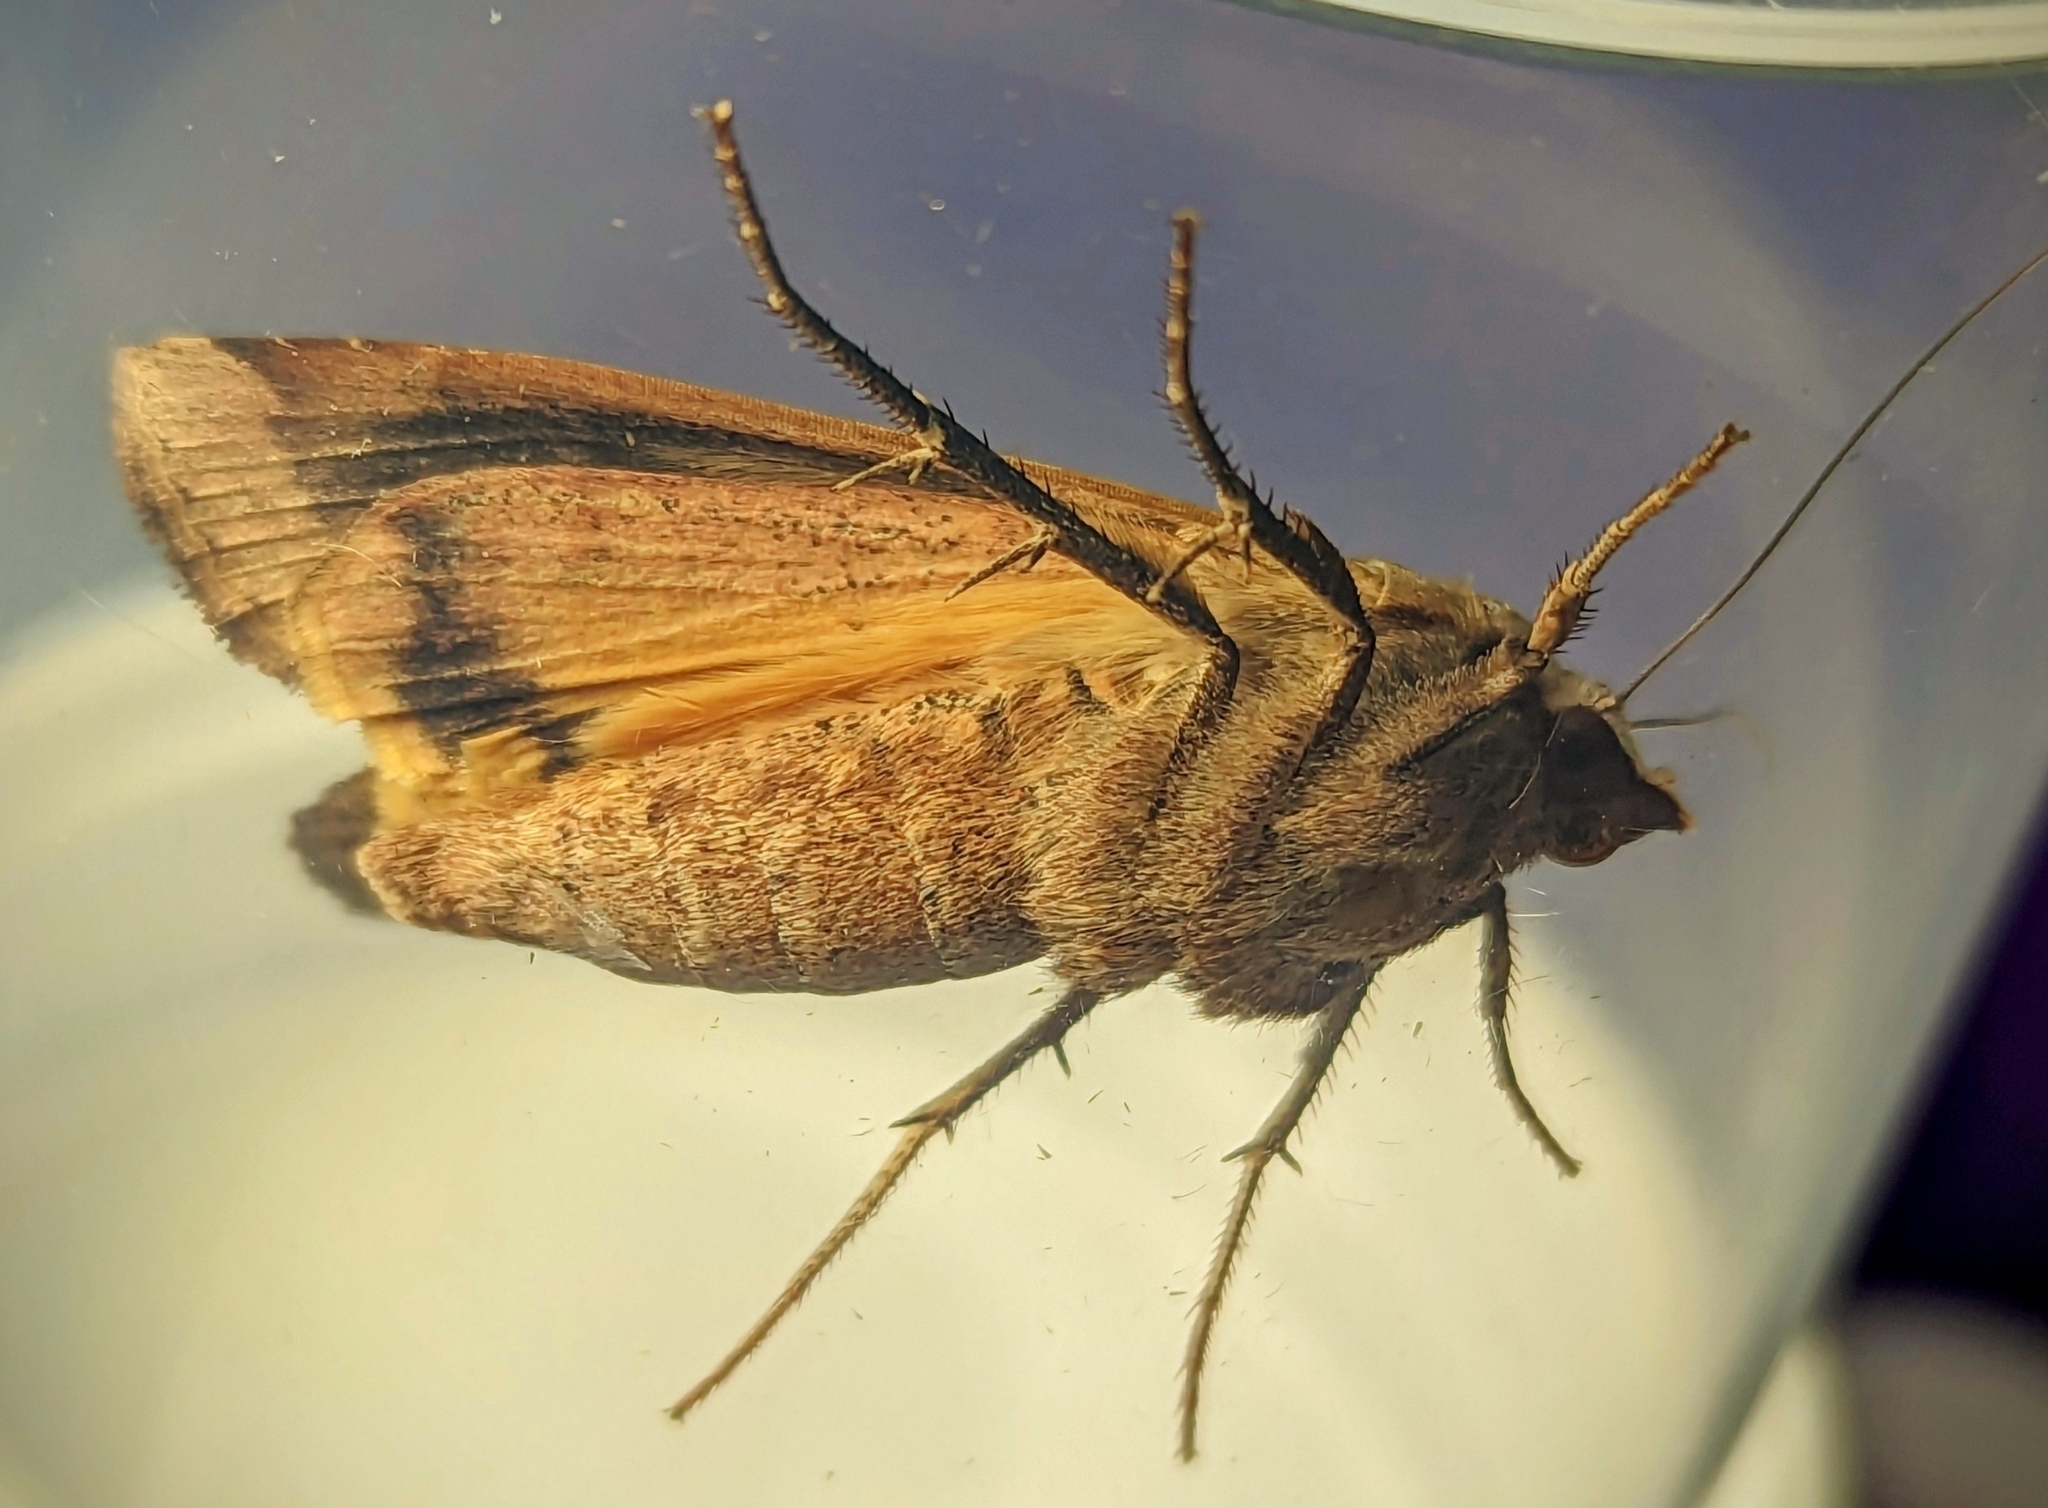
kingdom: Animalia
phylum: Arthropoda
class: Insecta
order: Lepidoptera
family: Noctuidae
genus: Noctua
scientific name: Noctua pronuba
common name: Large yellow underwing
